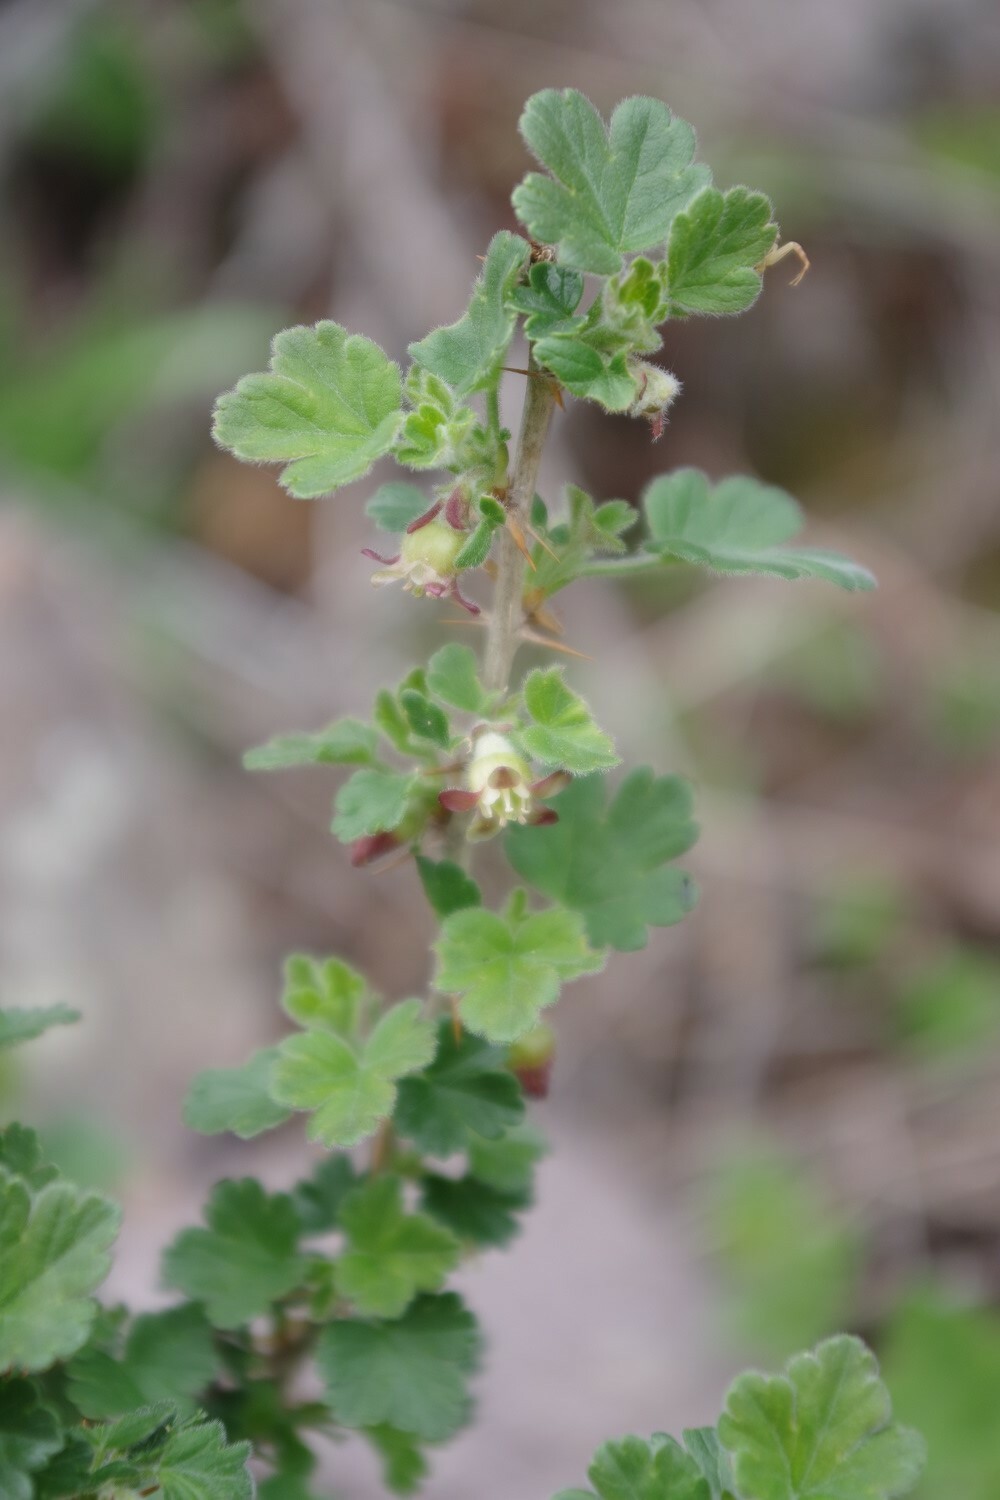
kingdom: Plantae
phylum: Tracheophyta
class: Magnoliopsida
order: Saxifragales
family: Grossulariaceae
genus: Ribes
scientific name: Ribes uva-crispa
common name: Gooseberry
